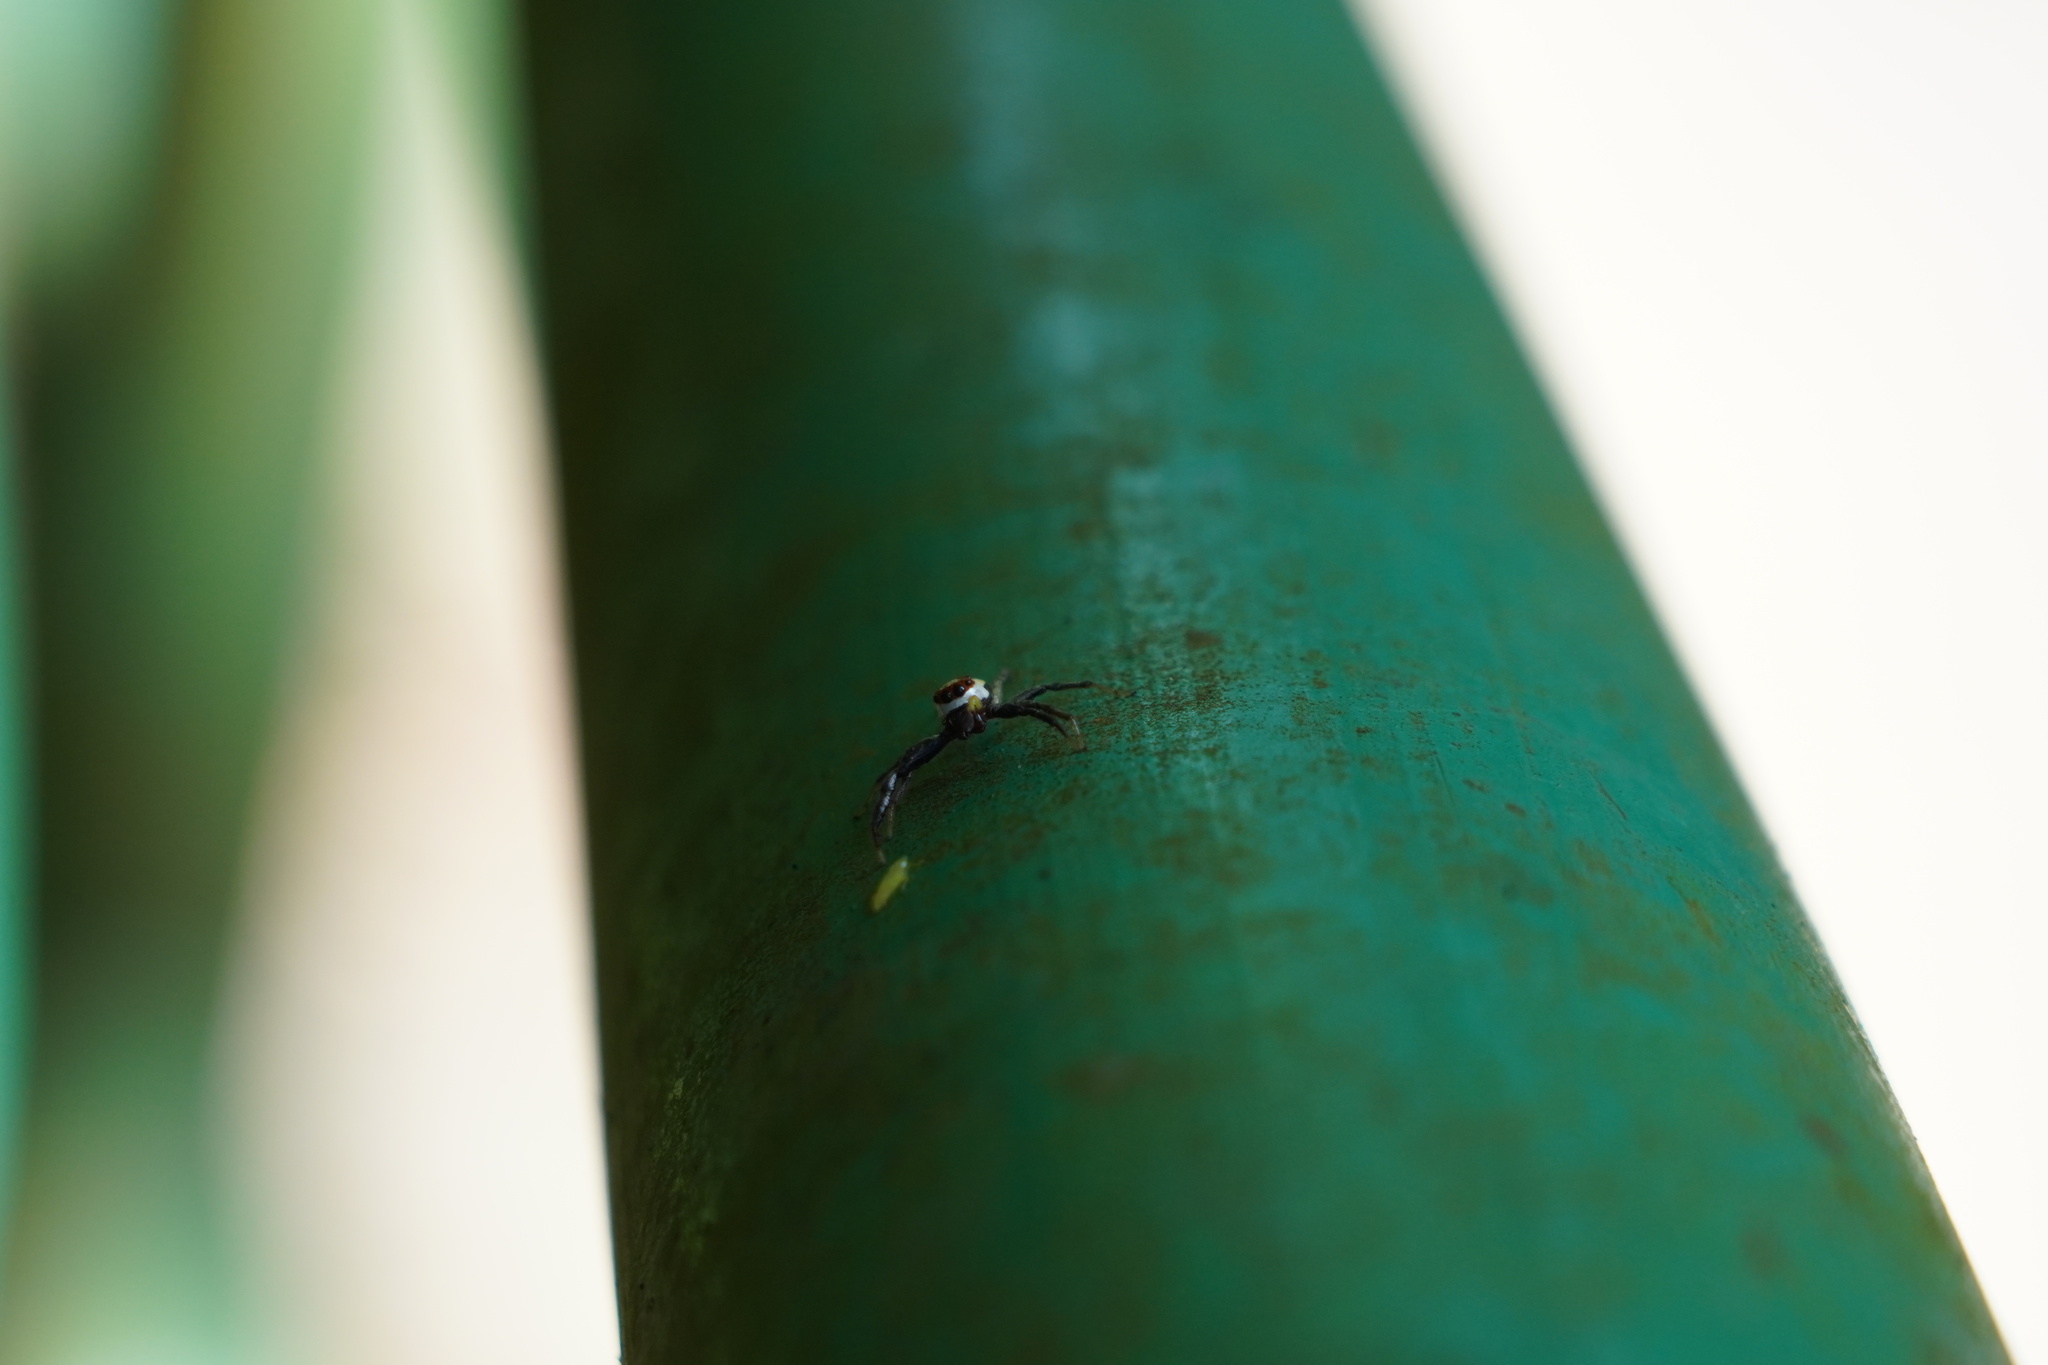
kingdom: Animalia
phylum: Arthropoda
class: Arachnida
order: Araneae
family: Salticidae
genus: Epocilla
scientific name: Epocilla blairei
